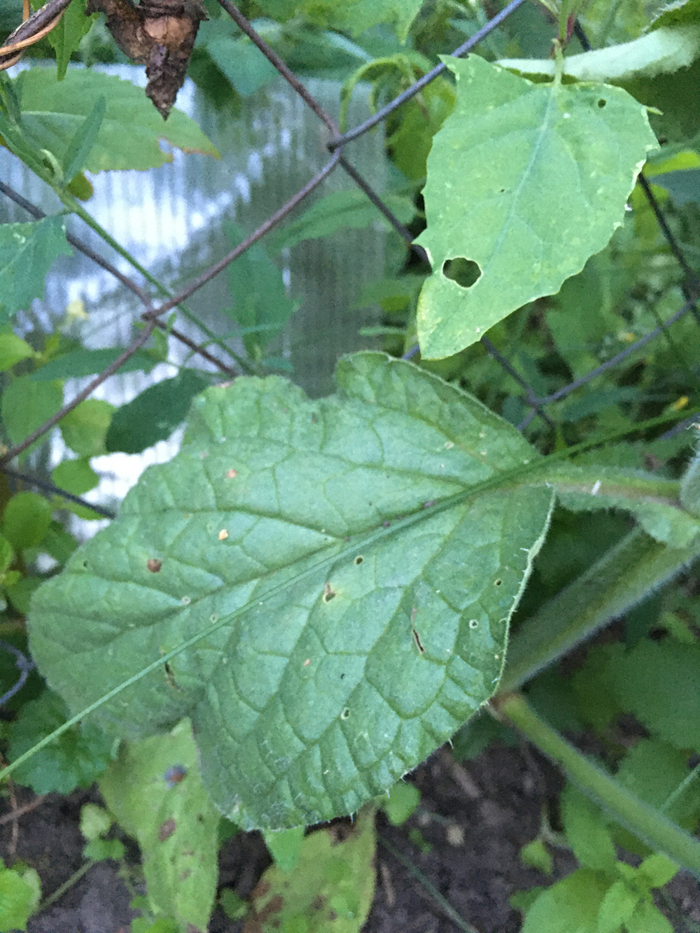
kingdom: Plantae
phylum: Tracheophyta
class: Magnoliopsida
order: Boraginales
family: Boraginaceae
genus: Borago
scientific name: Borago officinalis
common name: Borage
